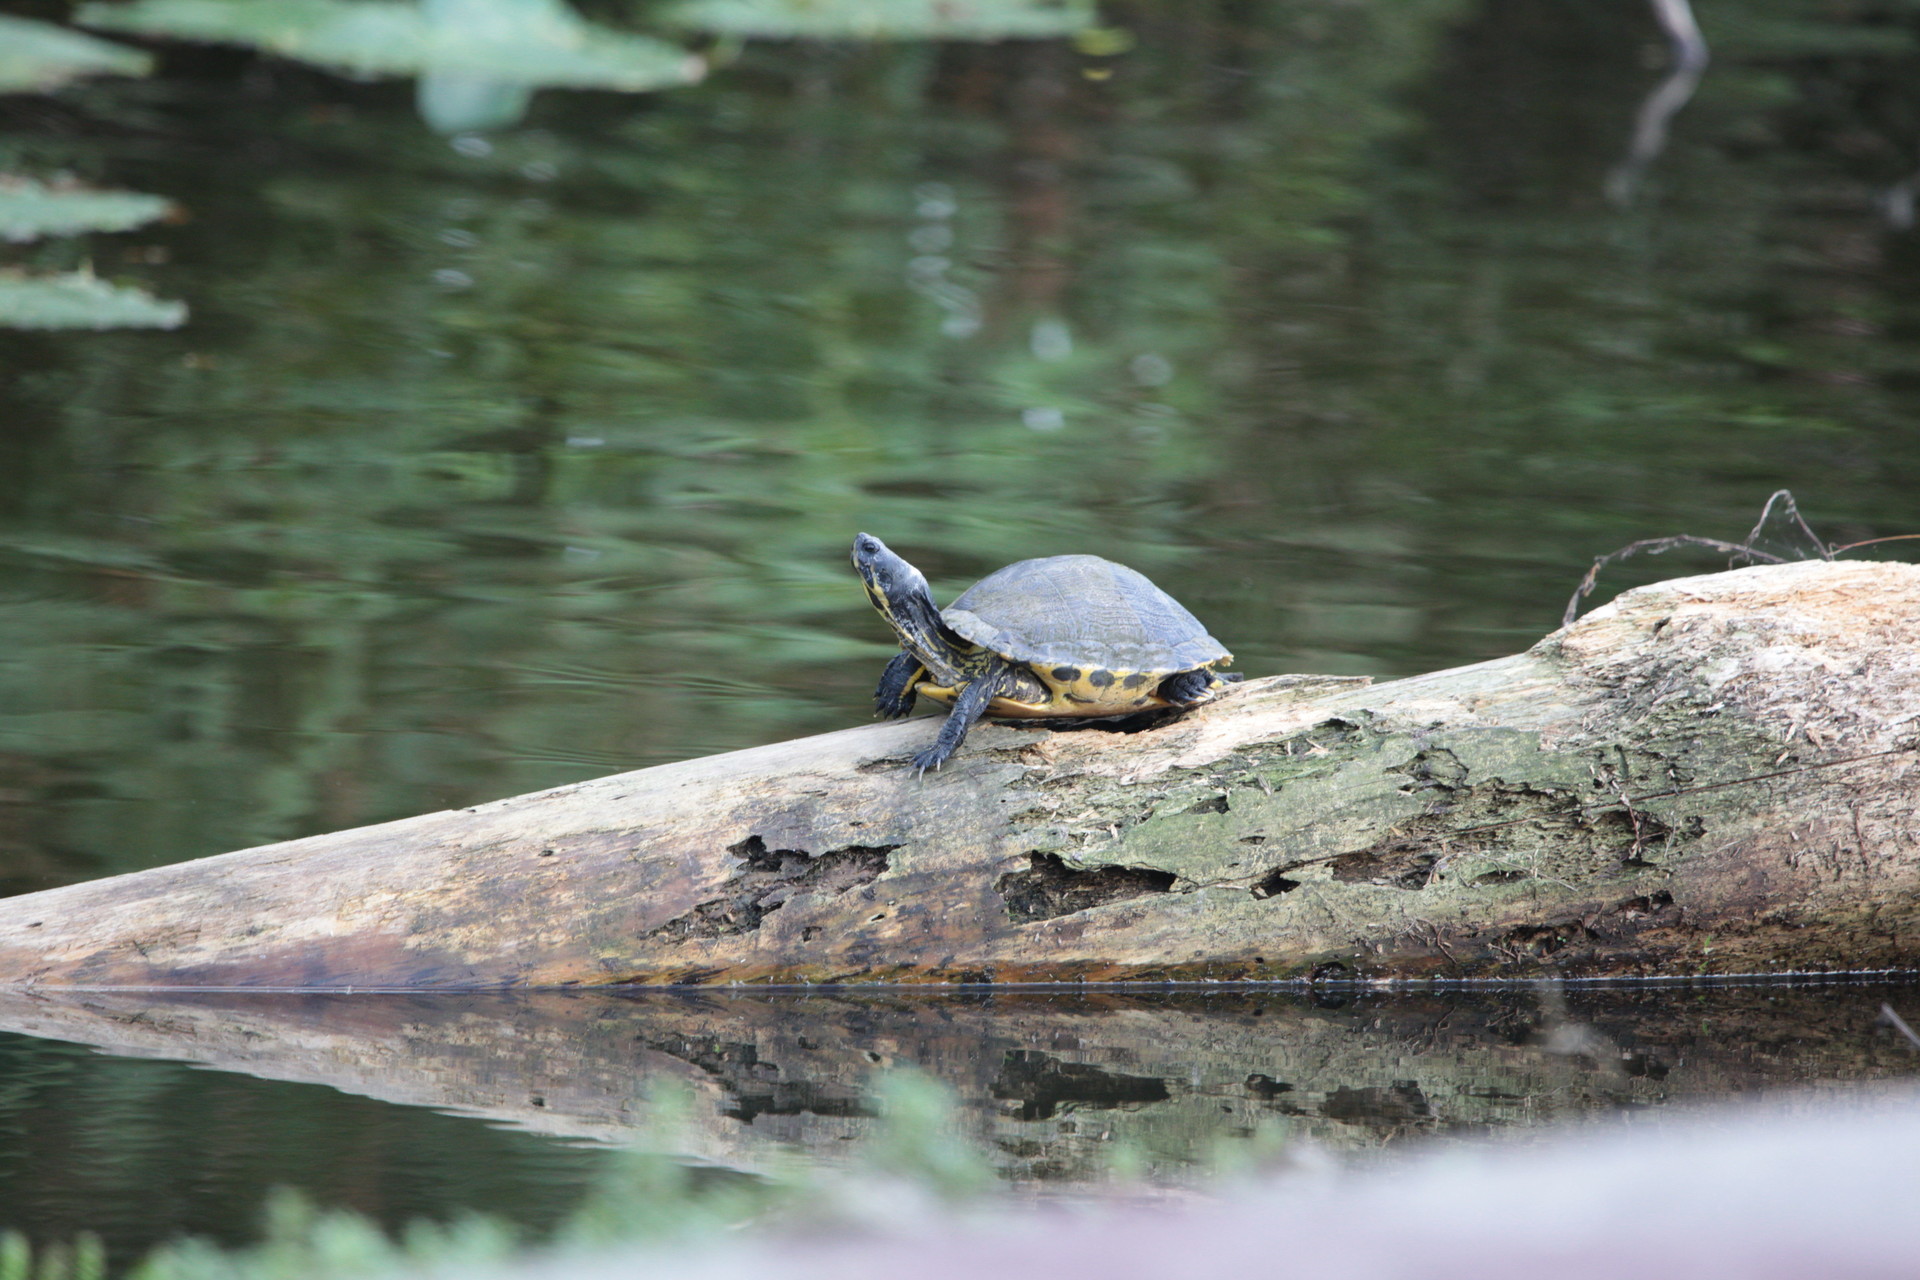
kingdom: Animalia
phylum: Chordata
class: Testudines
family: Emydidae
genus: Trachemys
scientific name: Trachemys scripta
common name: Slider
